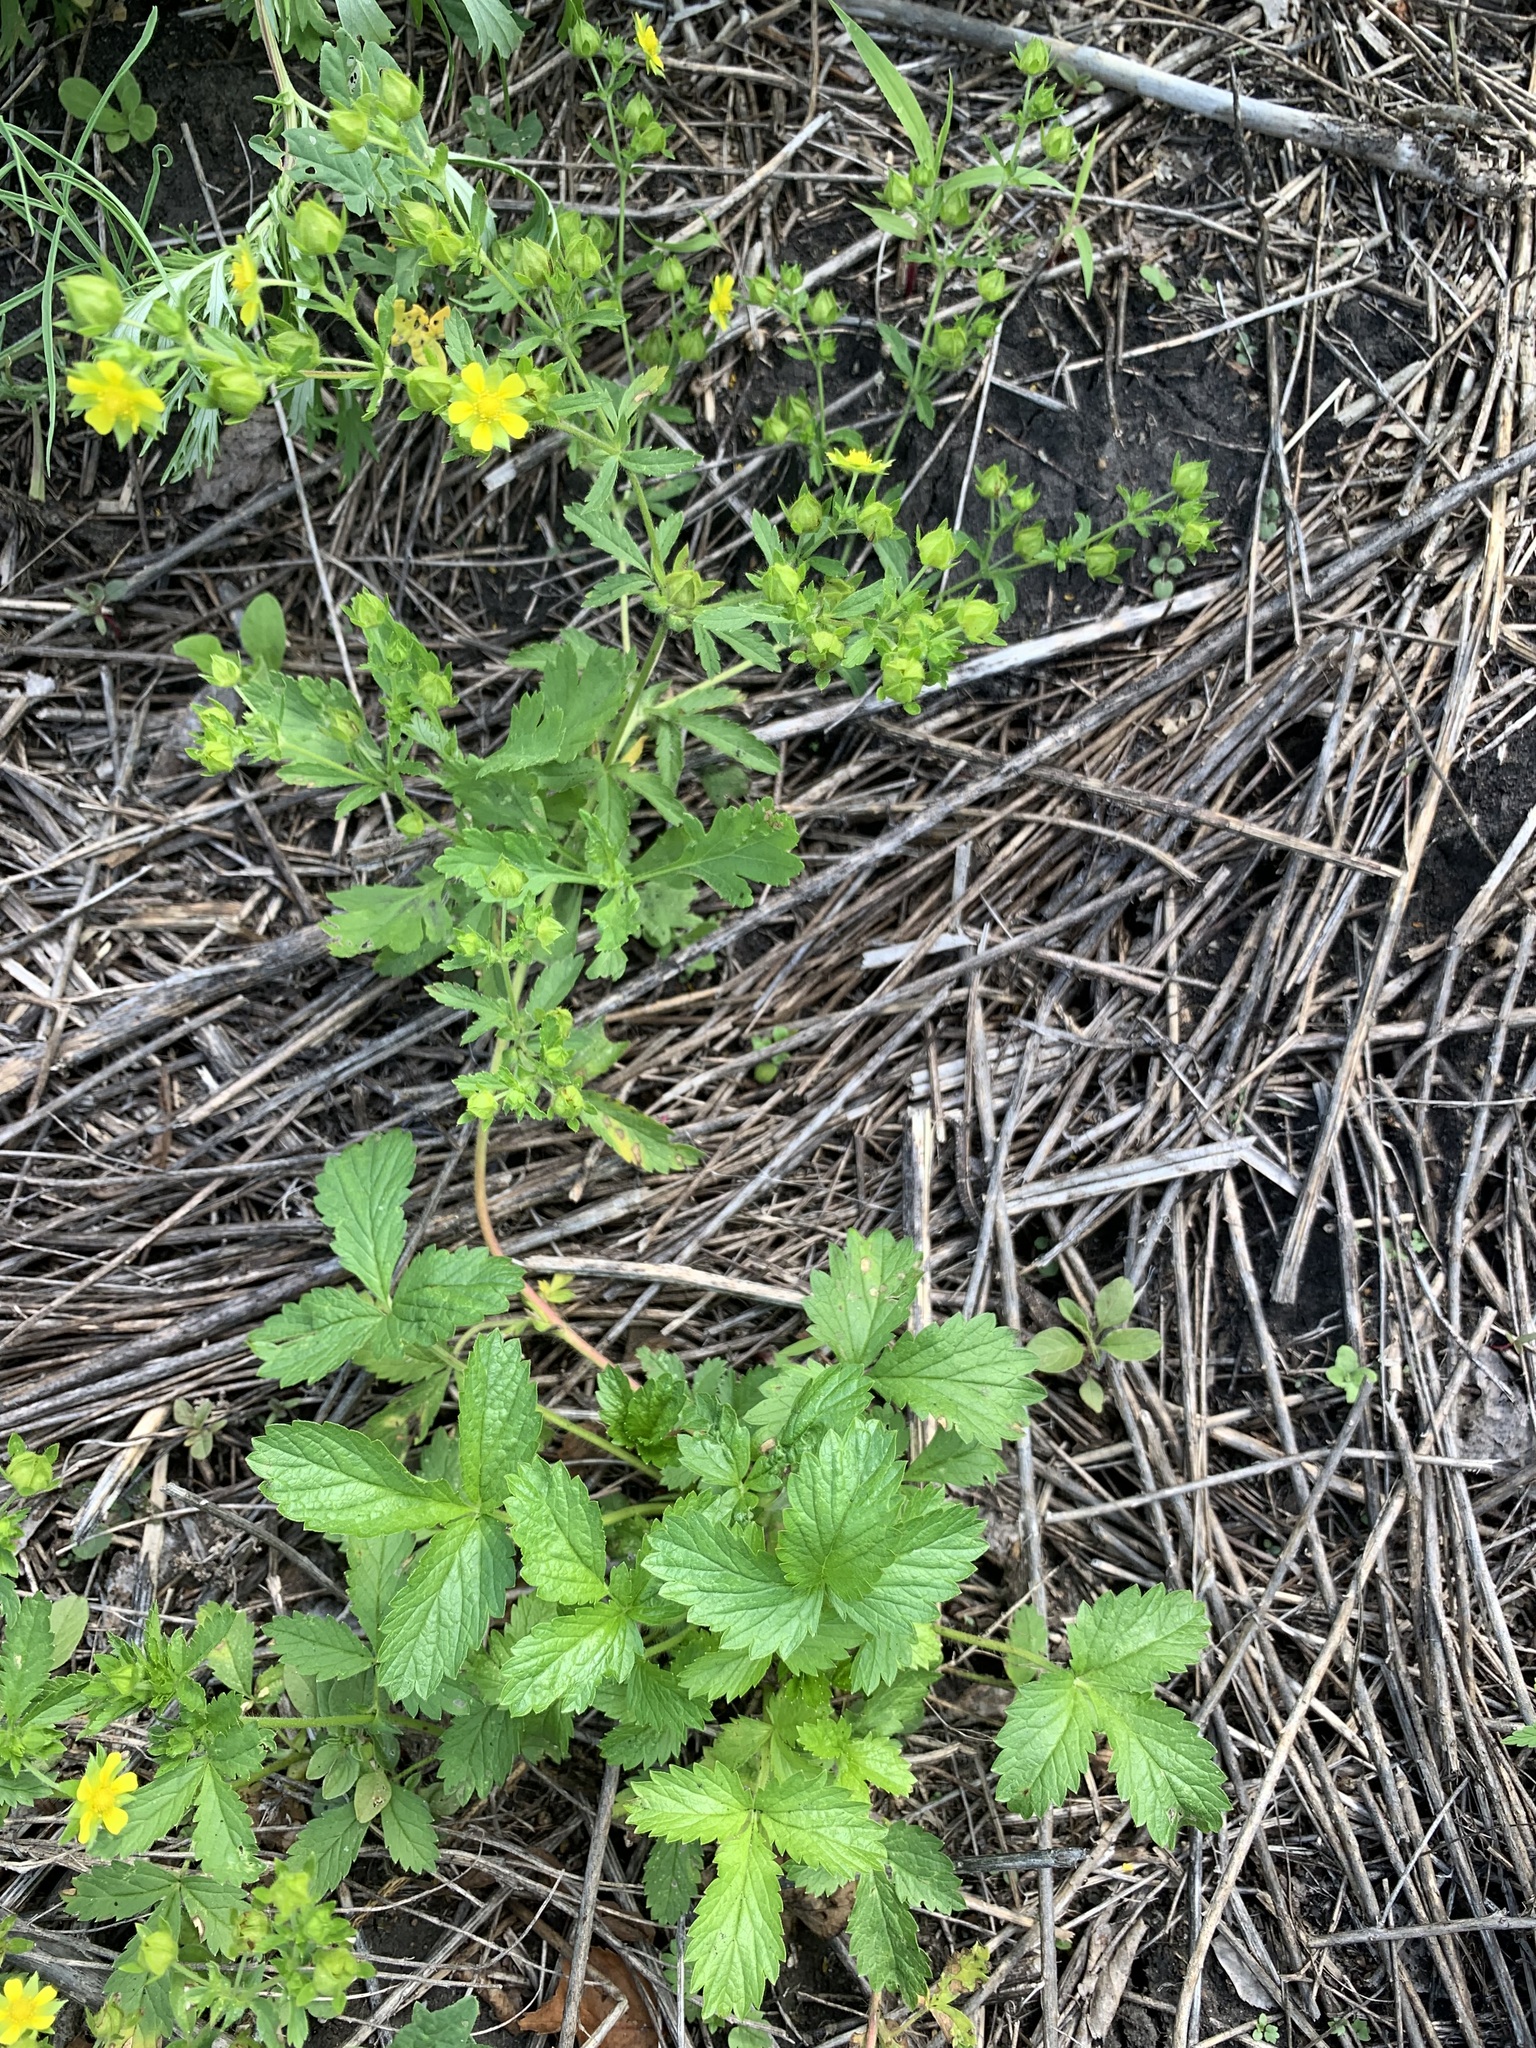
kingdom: Plantae
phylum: Tracheophyta
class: Magnoliopsida
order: Rosales
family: Rosaceae
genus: Potentilla
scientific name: Potentilla norvegica
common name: Ternate-leaved cinquefoil
